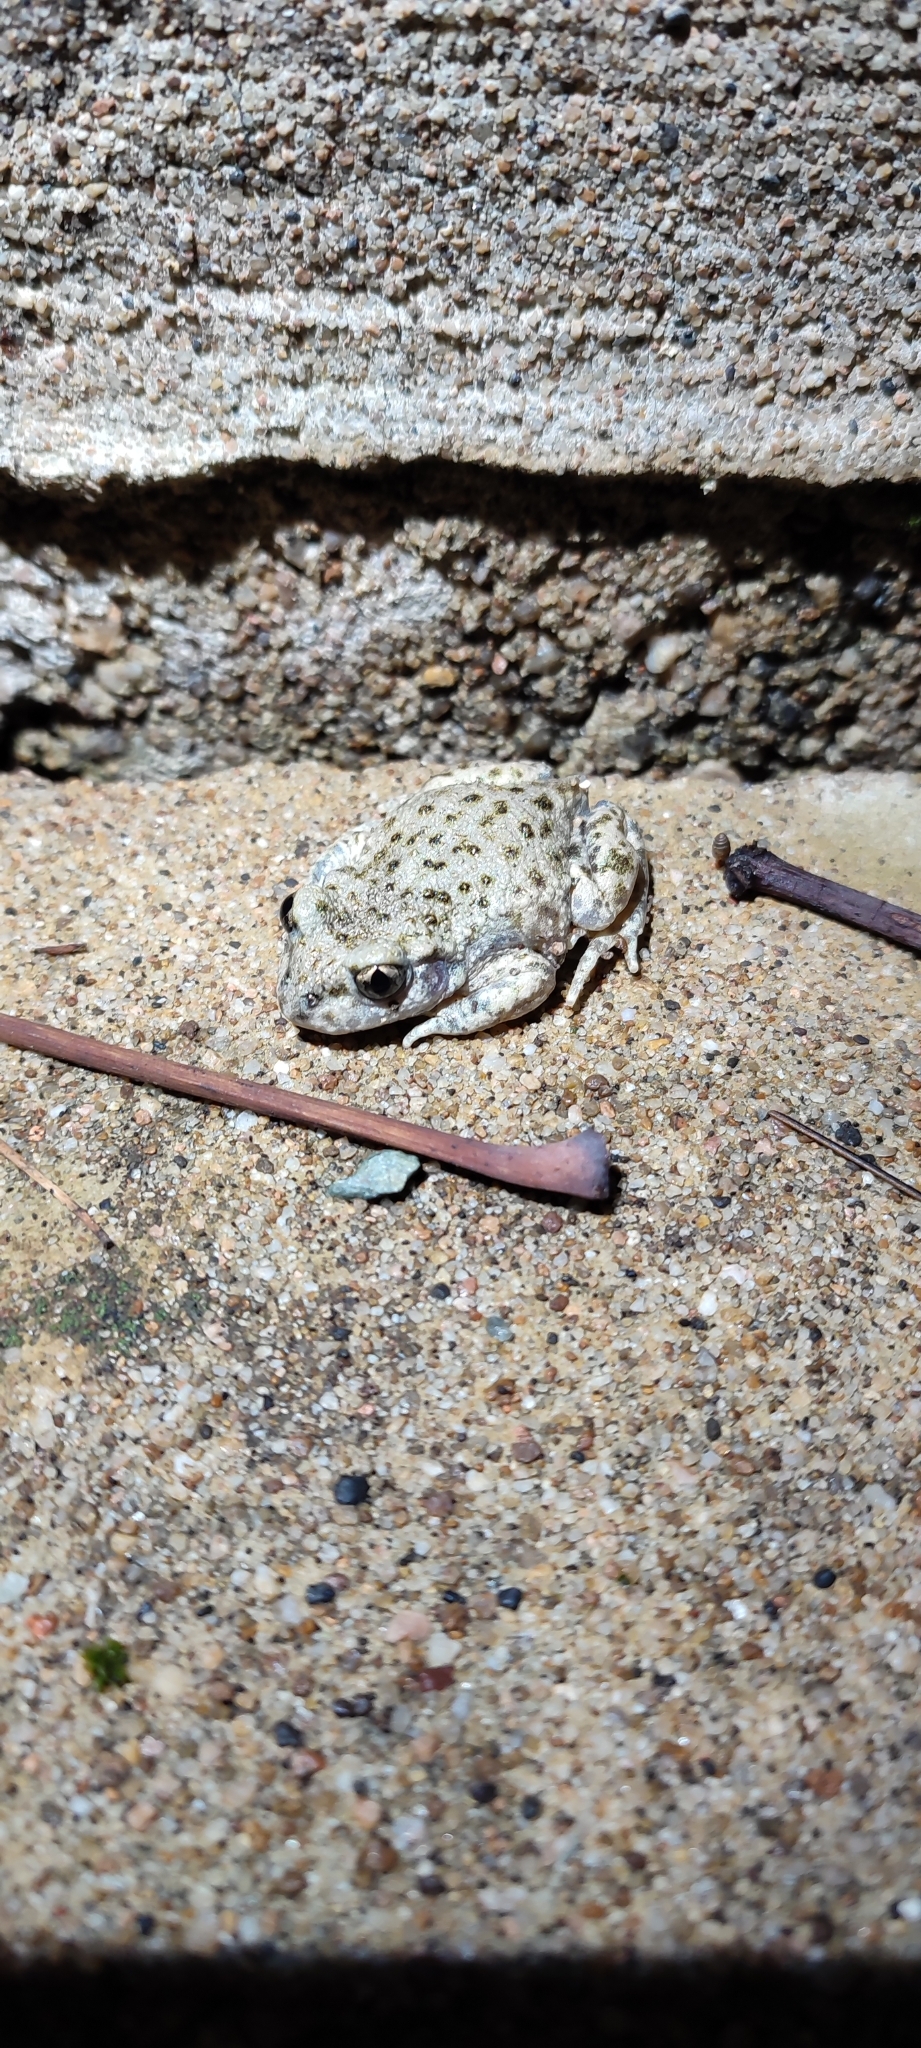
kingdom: Animalia
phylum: Chordata
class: Amphibia
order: Anura
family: Alytidae
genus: Alytes
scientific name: Alytes obstetricans
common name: Midwife toad
